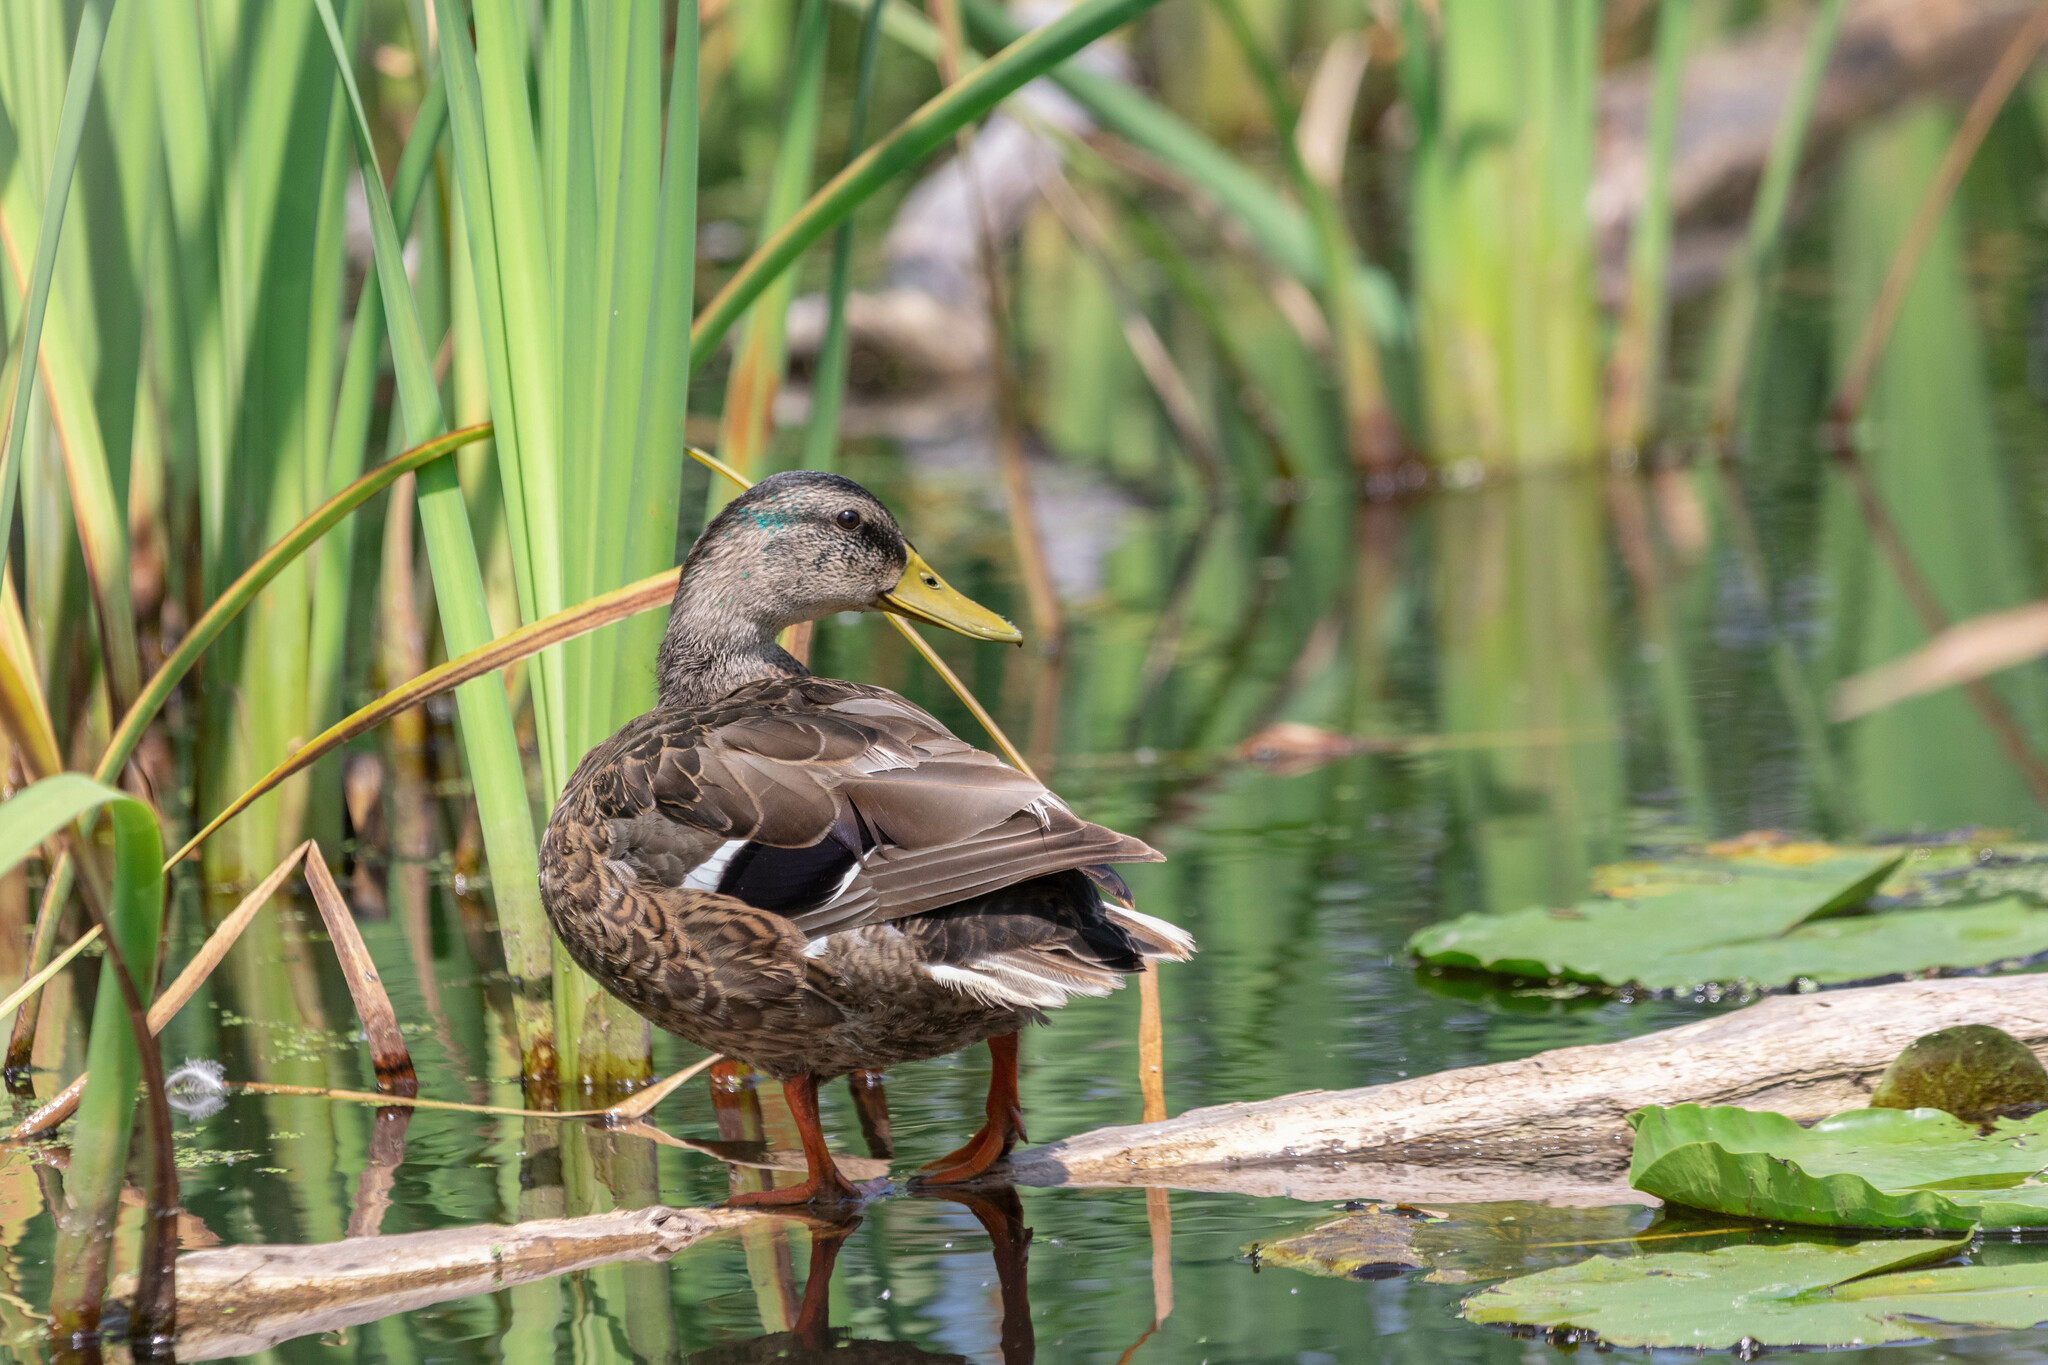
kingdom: Animalia
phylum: Chordata
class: Aves
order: Anseriformes
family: Anatidae
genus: Anas
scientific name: Anas platyrhynchos
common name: Mallard
